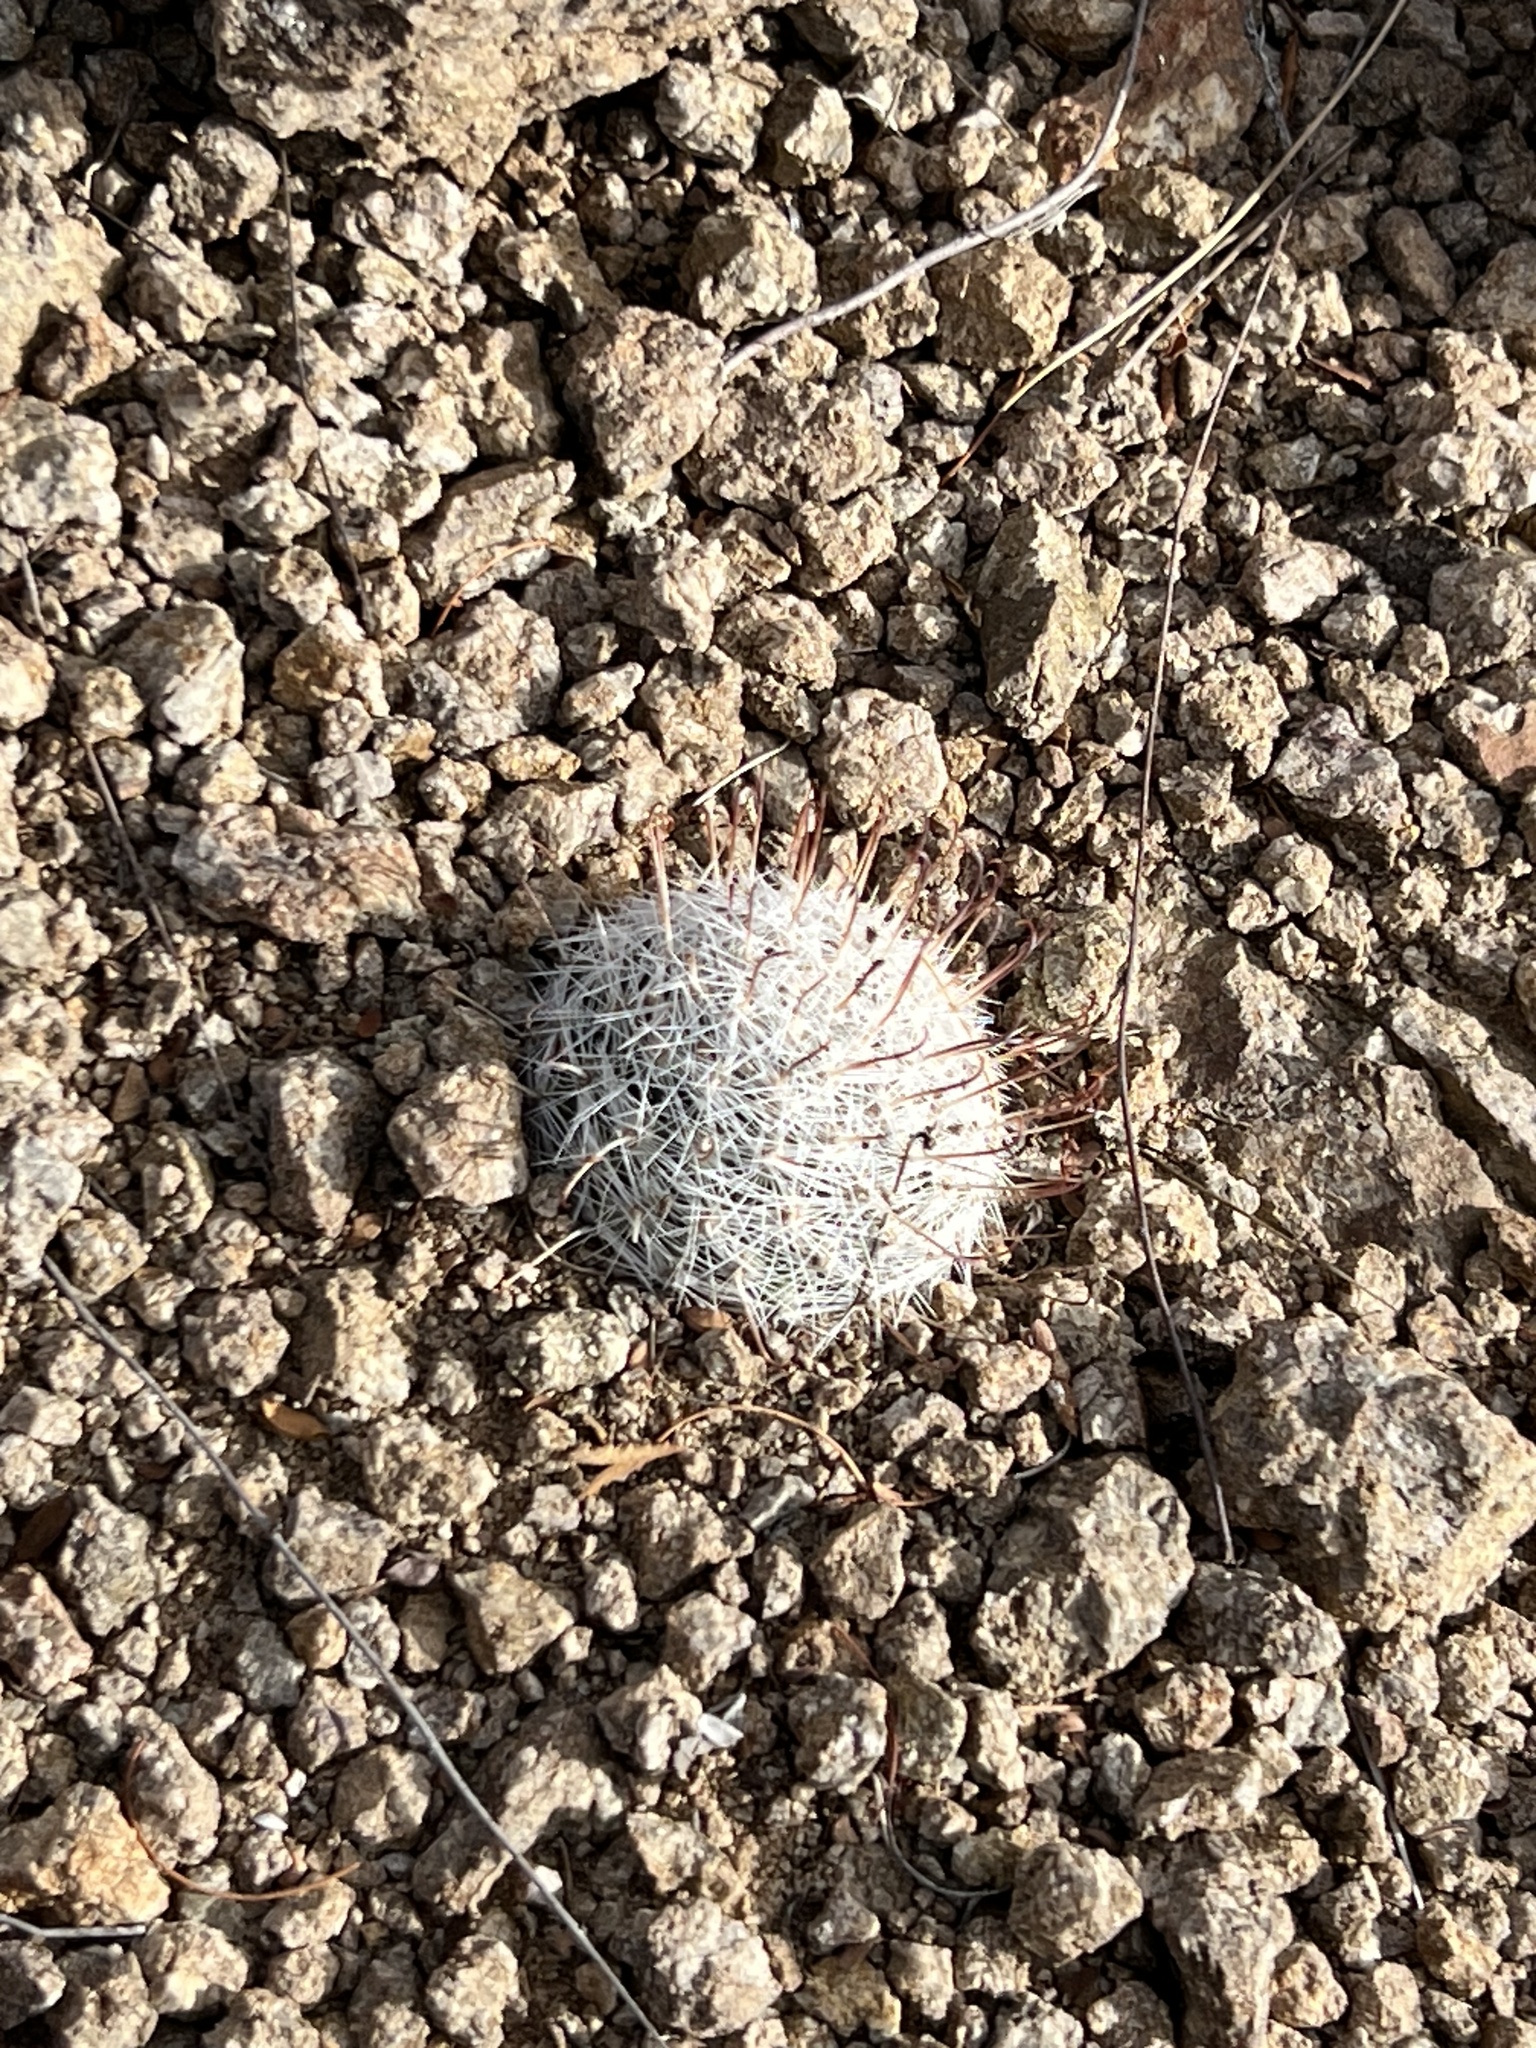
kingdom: Plantae
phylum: Tracheophyta
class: Magnoliopsida
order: Caryophyllales
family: Cactaceae
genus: Cochemiea
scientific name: Cochemiea grahamii
